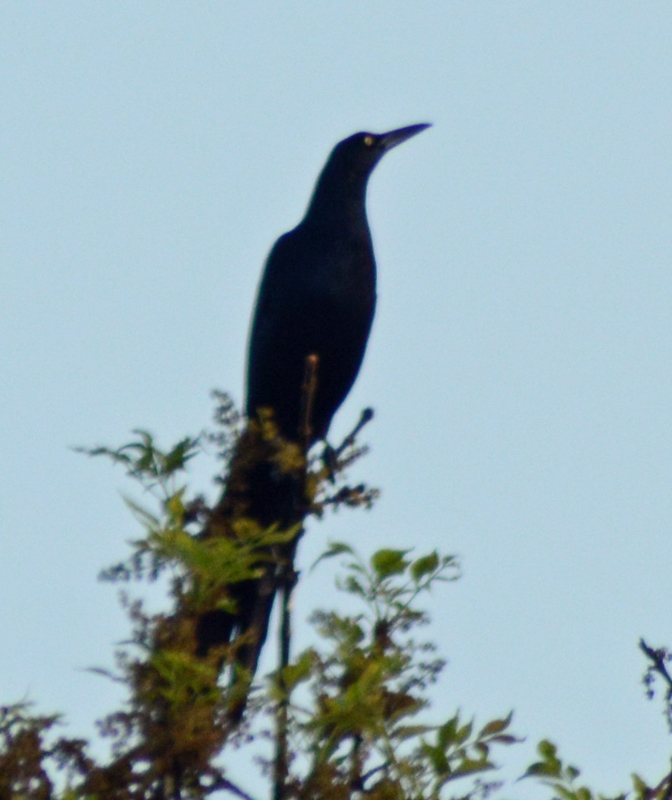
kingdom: Animalia
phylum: Chordata
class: Aves
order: Passeriformes
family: Icteridae
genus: Quiscalus
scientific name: Quiscalus mexicanus
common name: Great-tailed grackle
